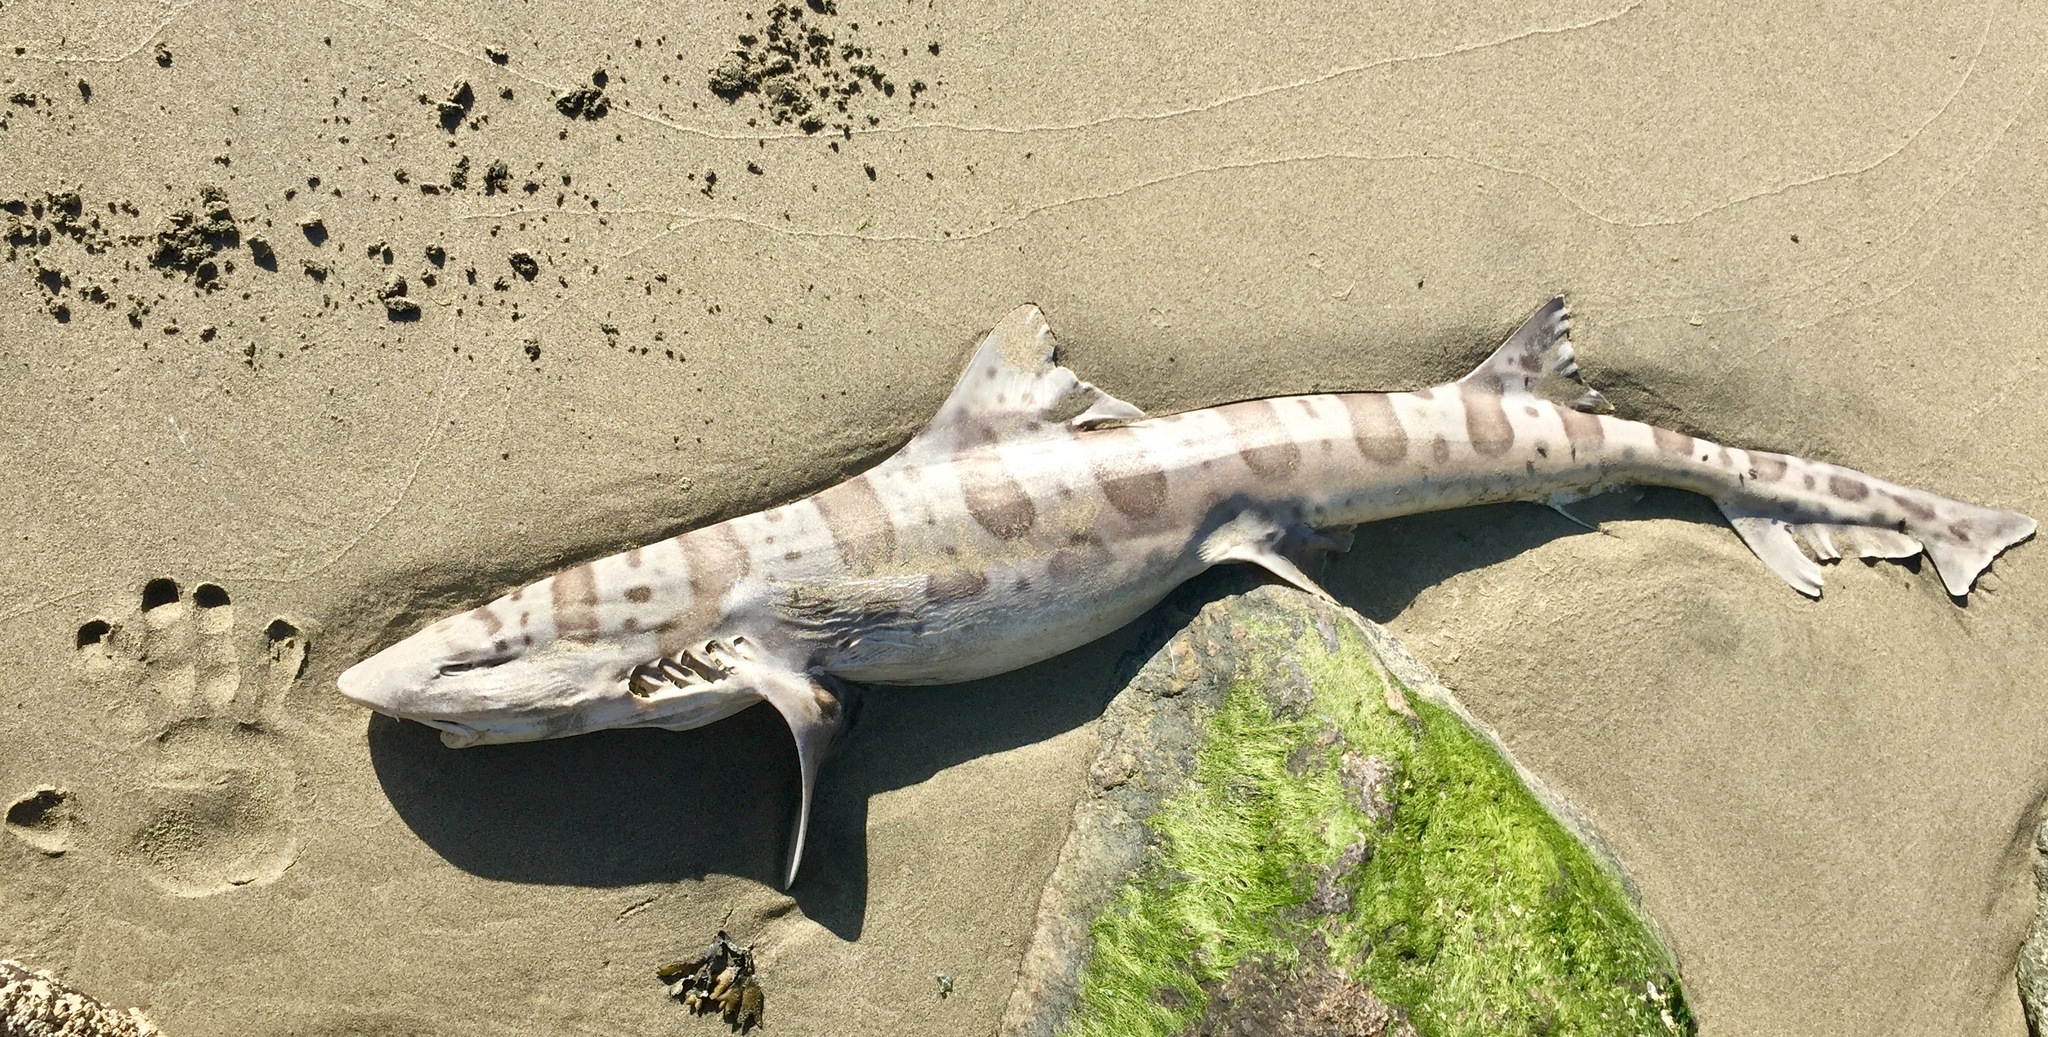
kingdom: Animalia
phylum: Chordata
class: Elasmobranchii
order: Carcharhiniformes
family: Triakidae
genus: Triakis
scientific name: Triakis semifasciata
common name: Leopard shark
